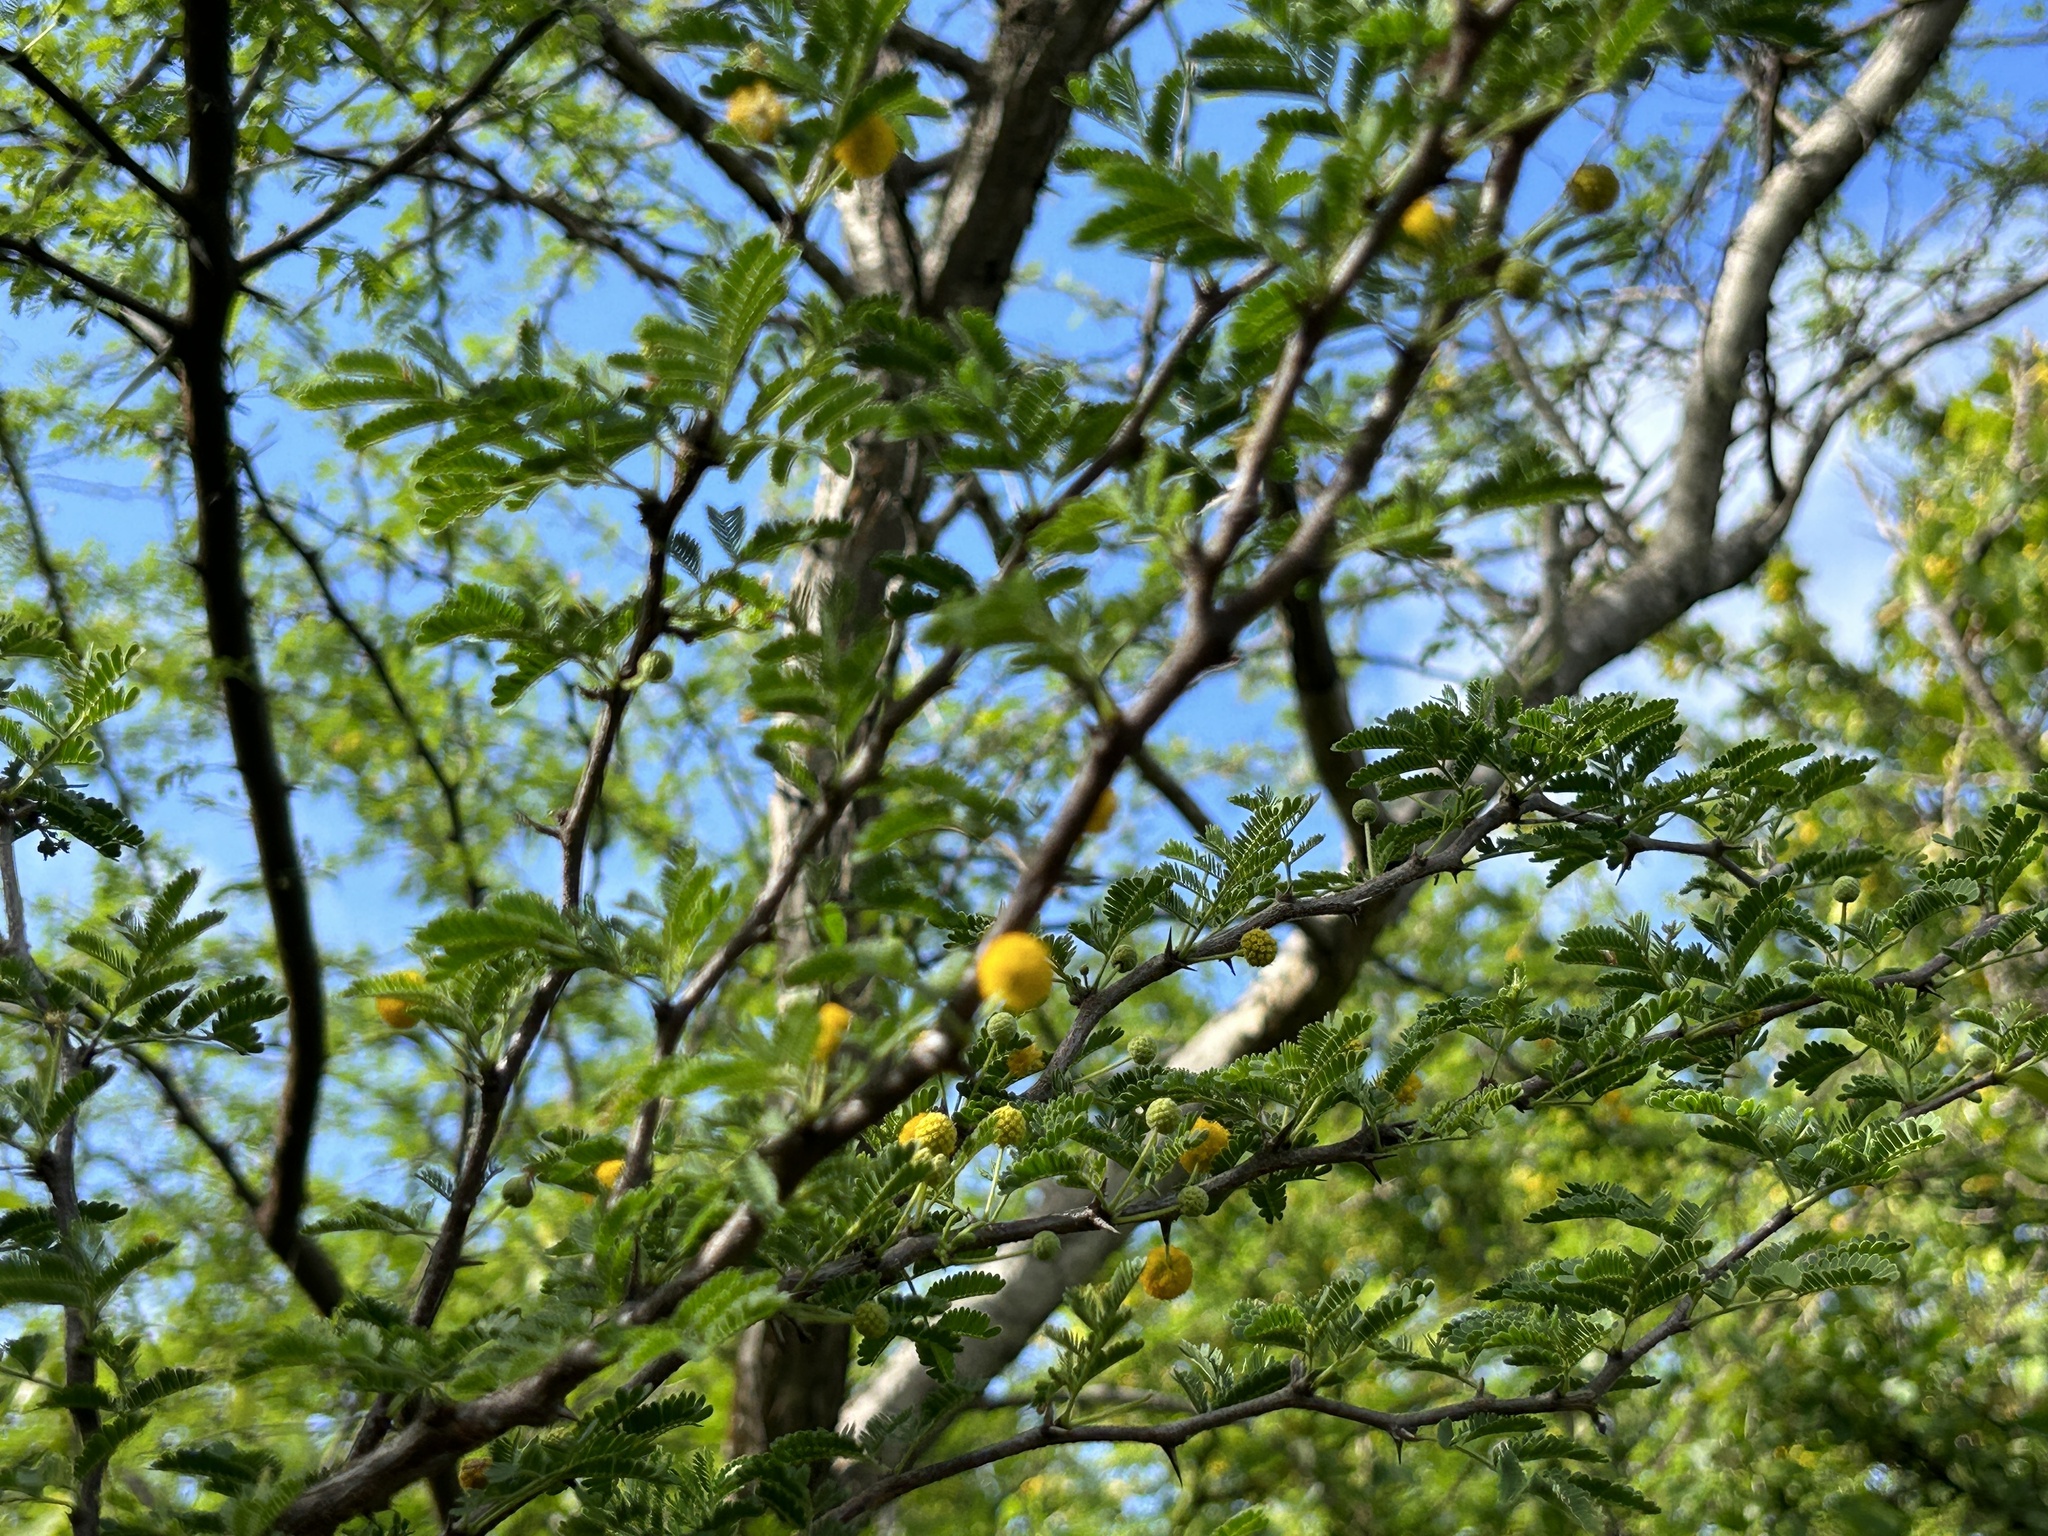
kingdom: Plantae
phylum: Tracheophyta
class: Magnoliopsida
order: Fabales
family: Fabaceae
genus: Vachellia
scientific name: Vachellia tortuosa
